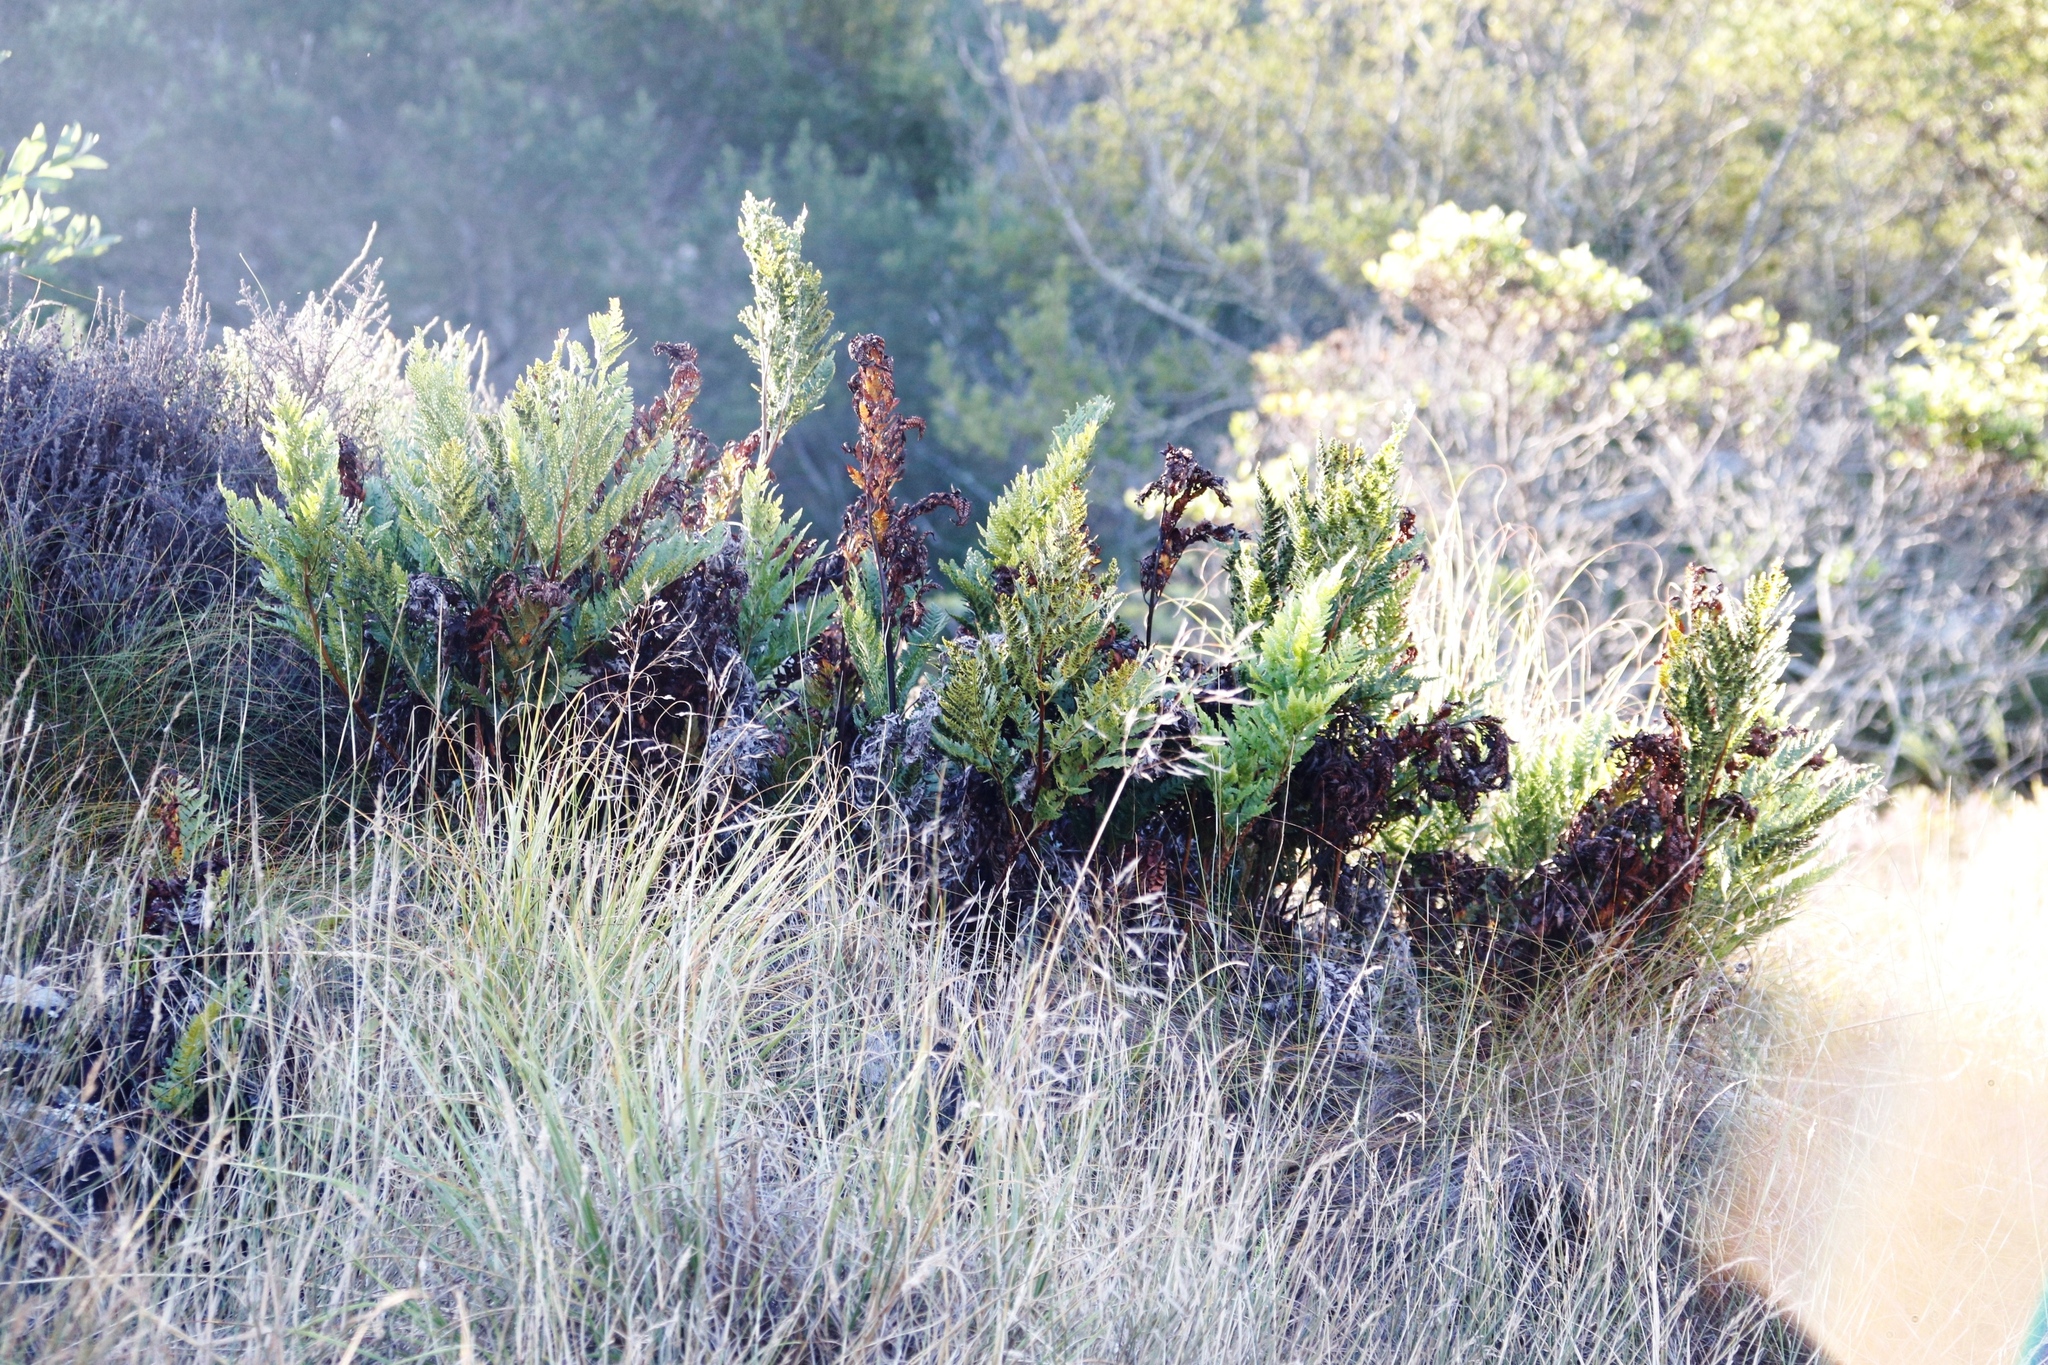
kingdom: Plantae
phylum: Tracheophyta
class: Polypodiopsida
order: Osmundales
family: Osmundaceae
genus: Todea
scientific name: Todea barbara
